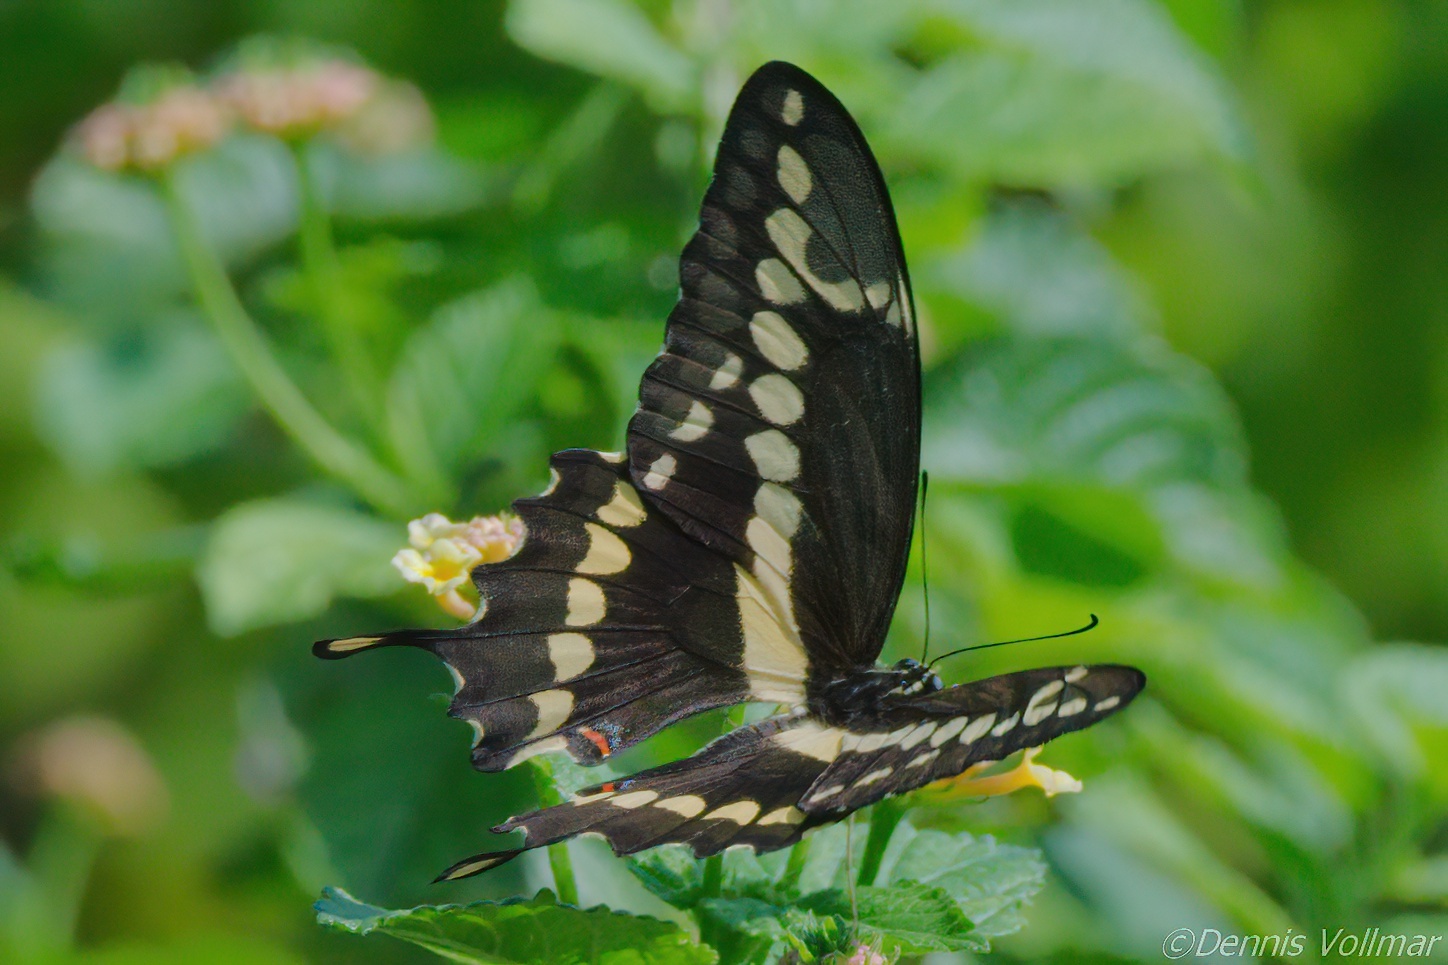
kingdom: Animalia
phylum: Arthropoda
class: Insecta
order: Lepidoptera
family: Papilionidae
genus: Papilio
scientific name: Papilio rumiko
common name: Western giant swallowtail
